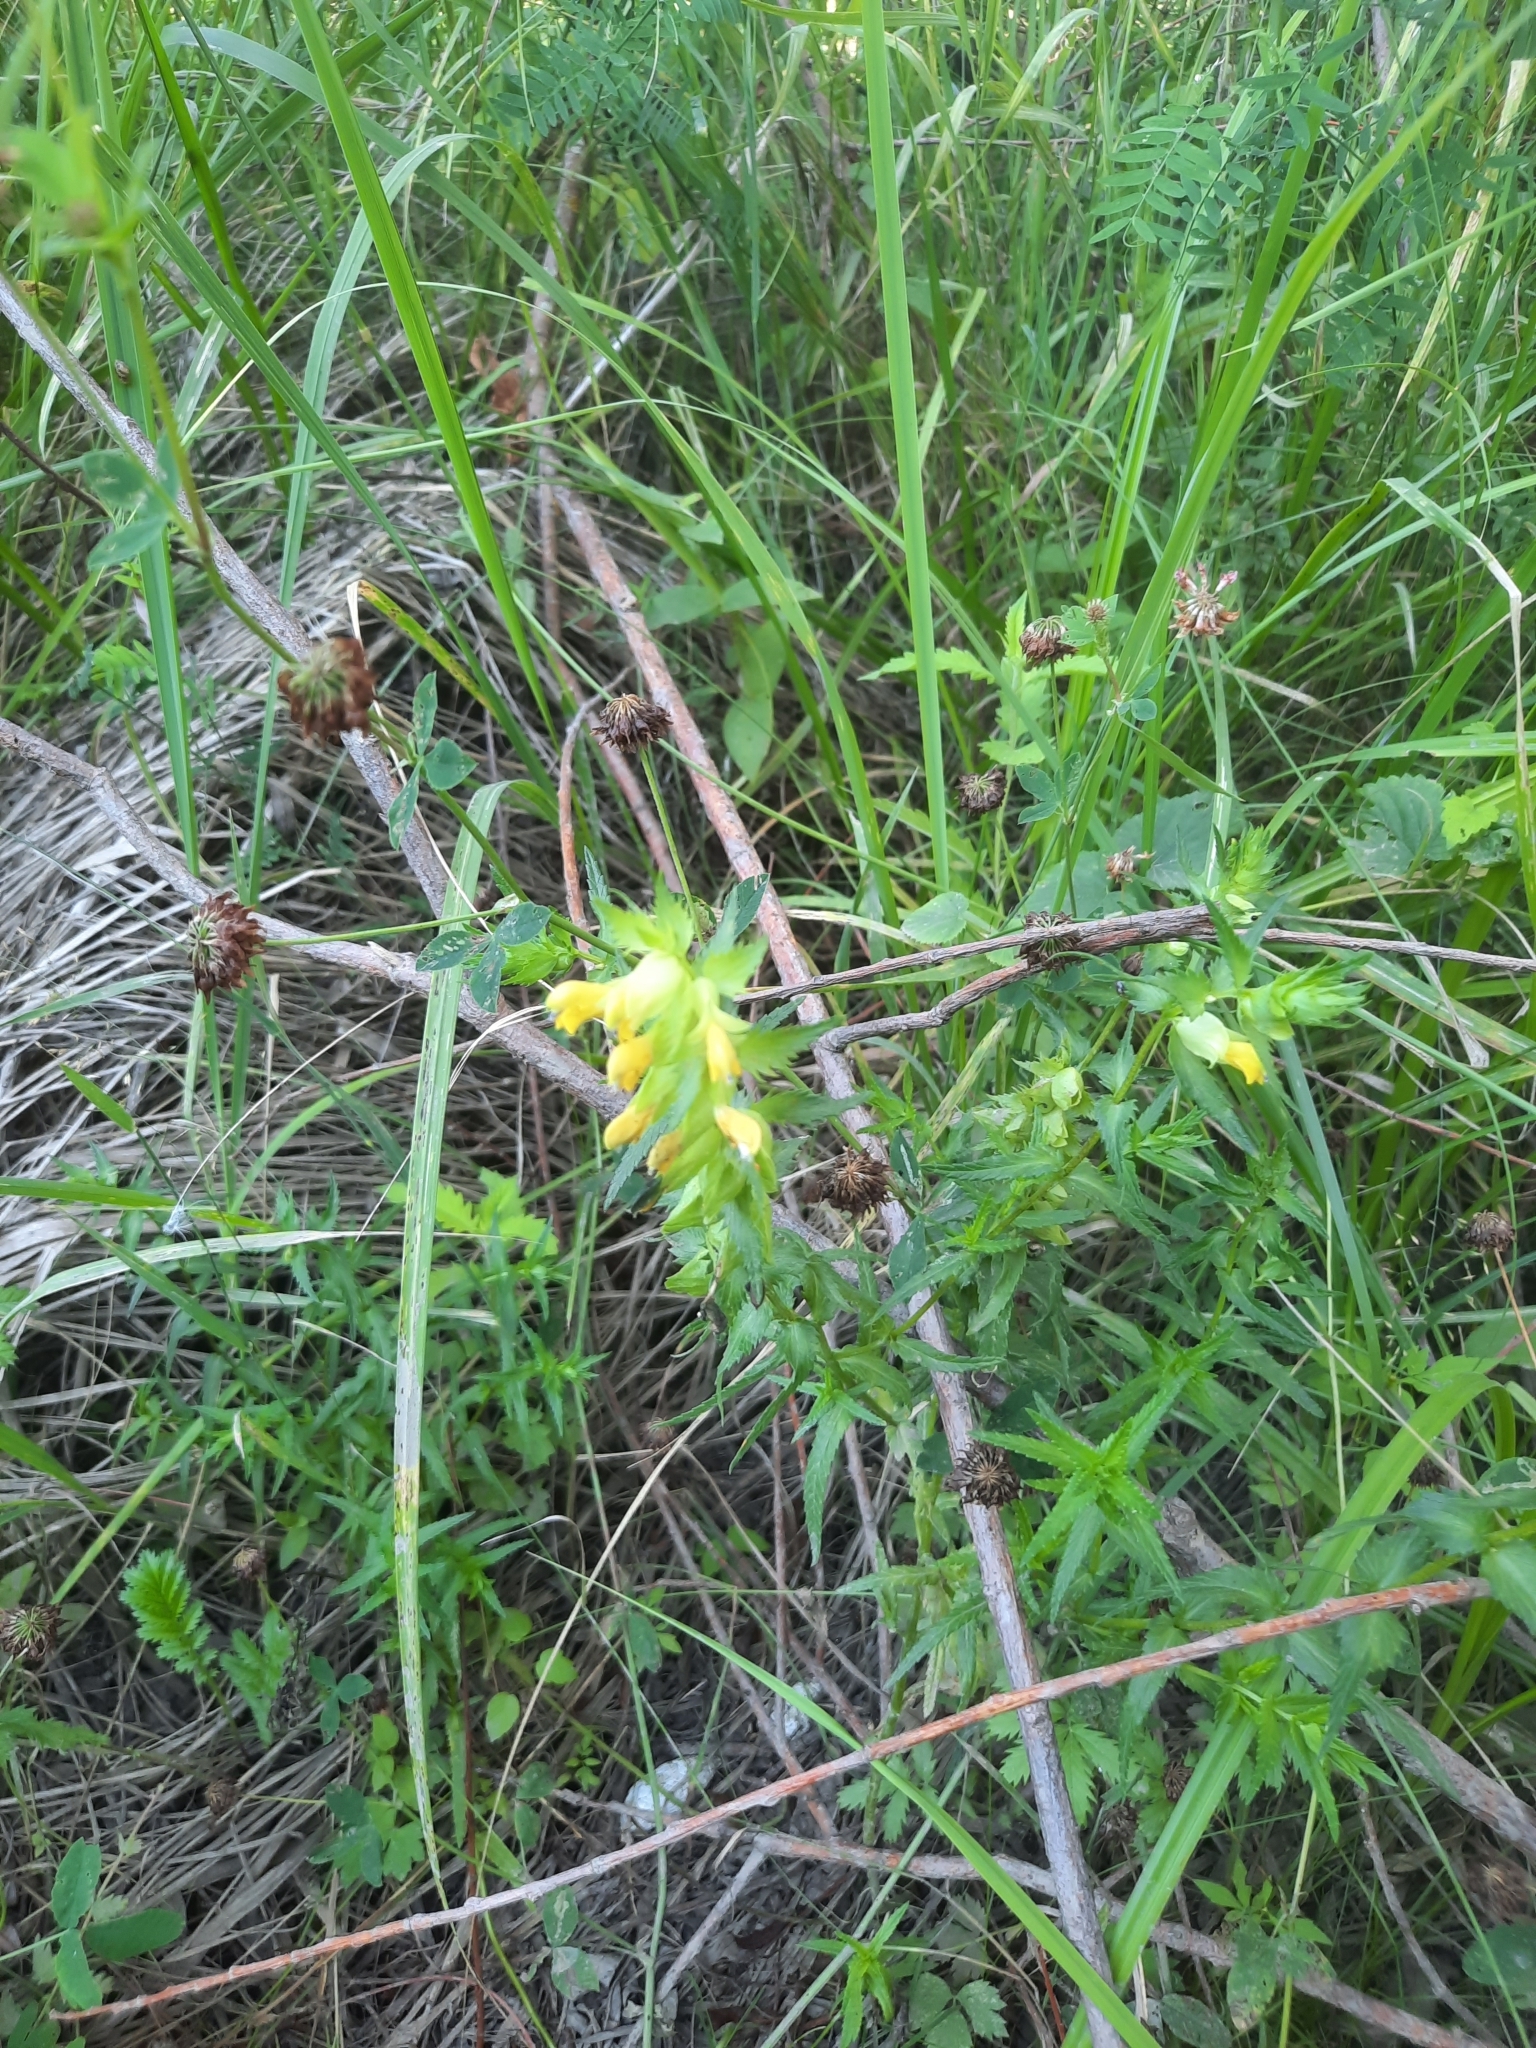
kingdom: Plantae
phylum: Tracheophyta
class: Magnoliopsida
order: Lamiales
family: Orobanchaceae
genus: Rhinanthus
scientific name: Rhinanthus serotinus
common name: Late-flowering yellow rattle
